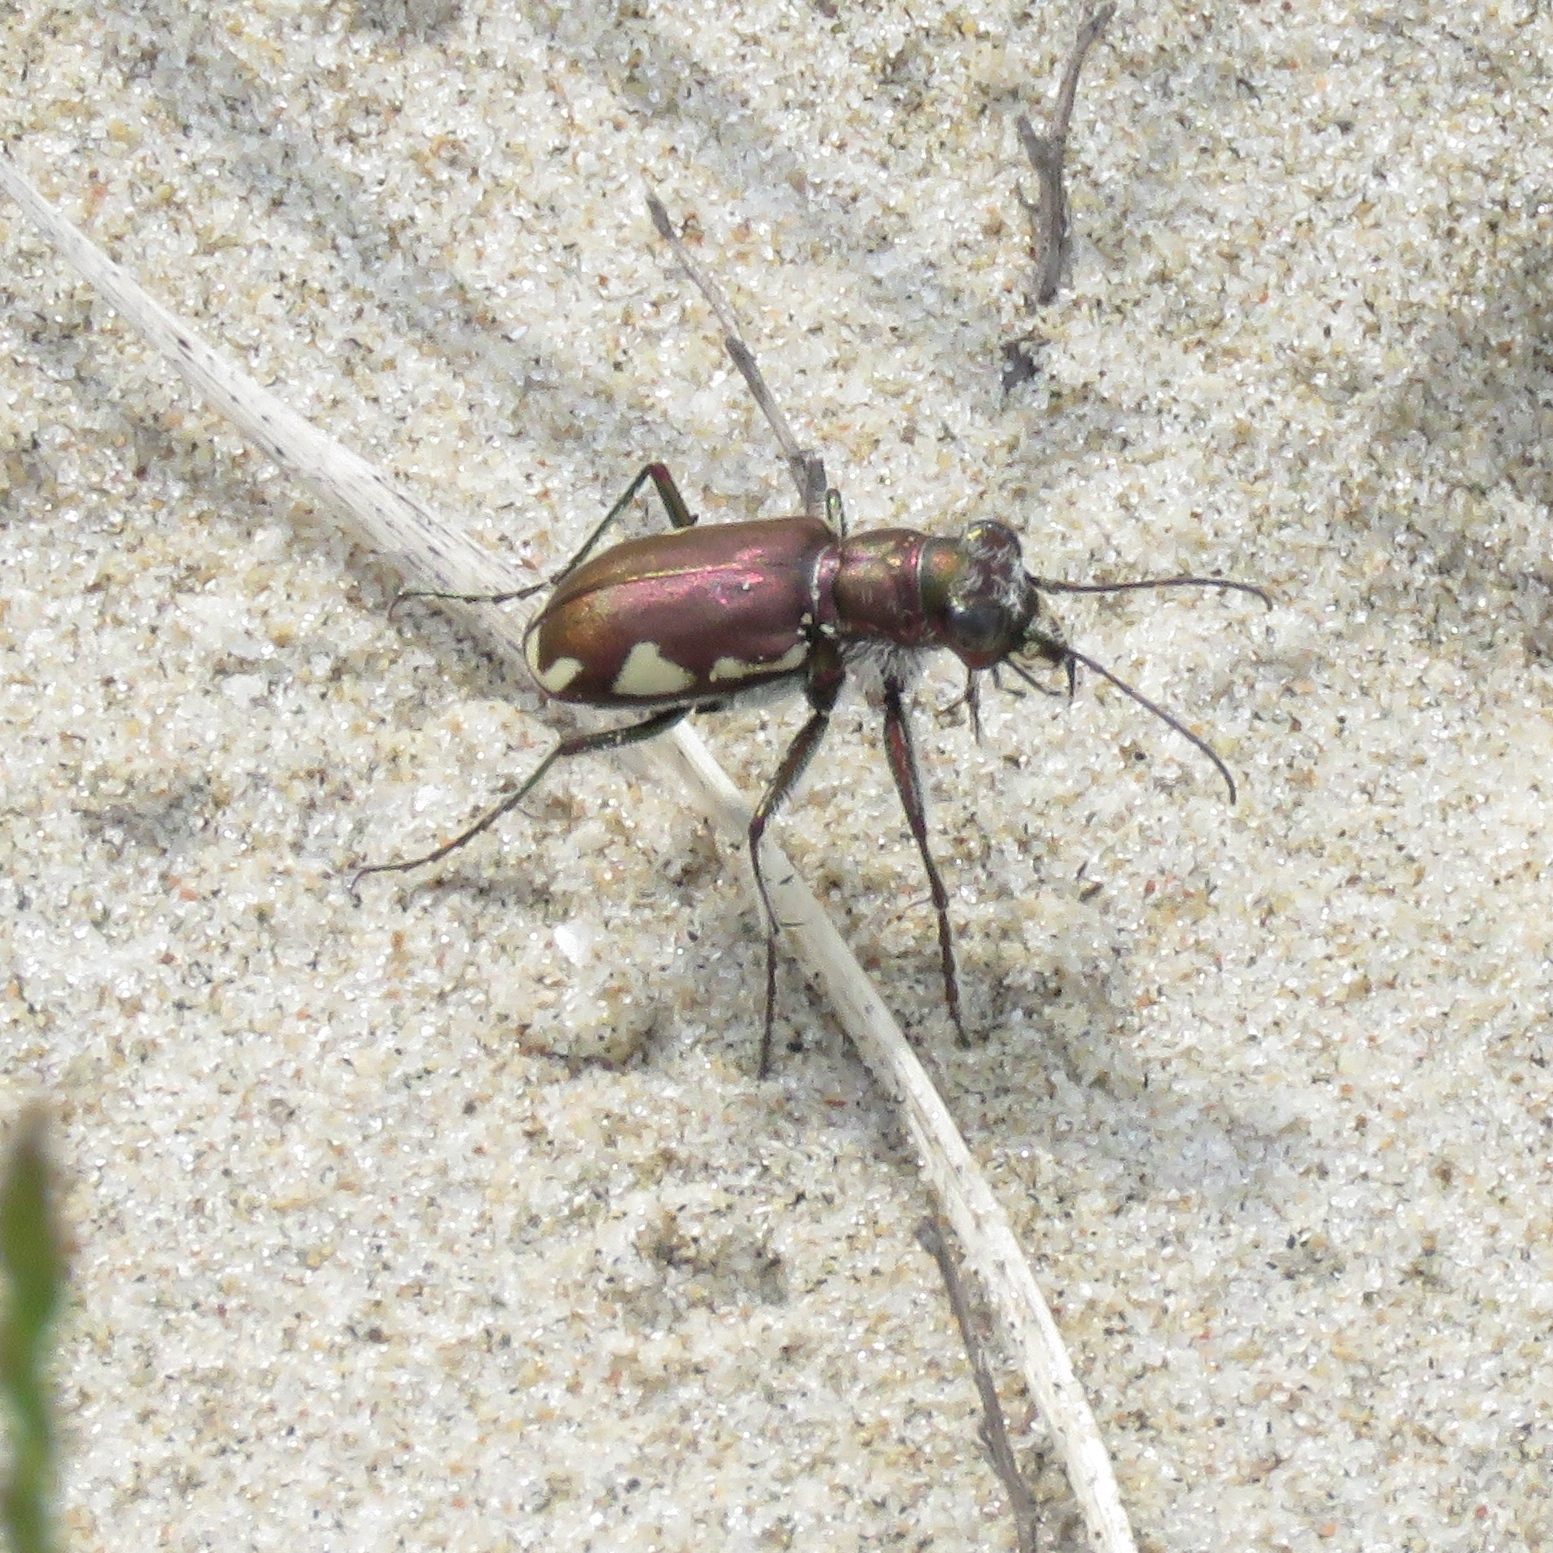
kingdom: Animalia
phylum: Arthropoda
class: Insecta
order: Coleoptera
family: Carabidae
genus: Cicindela
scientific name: Cicindela scutellaris
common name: Festive tiger beetle
